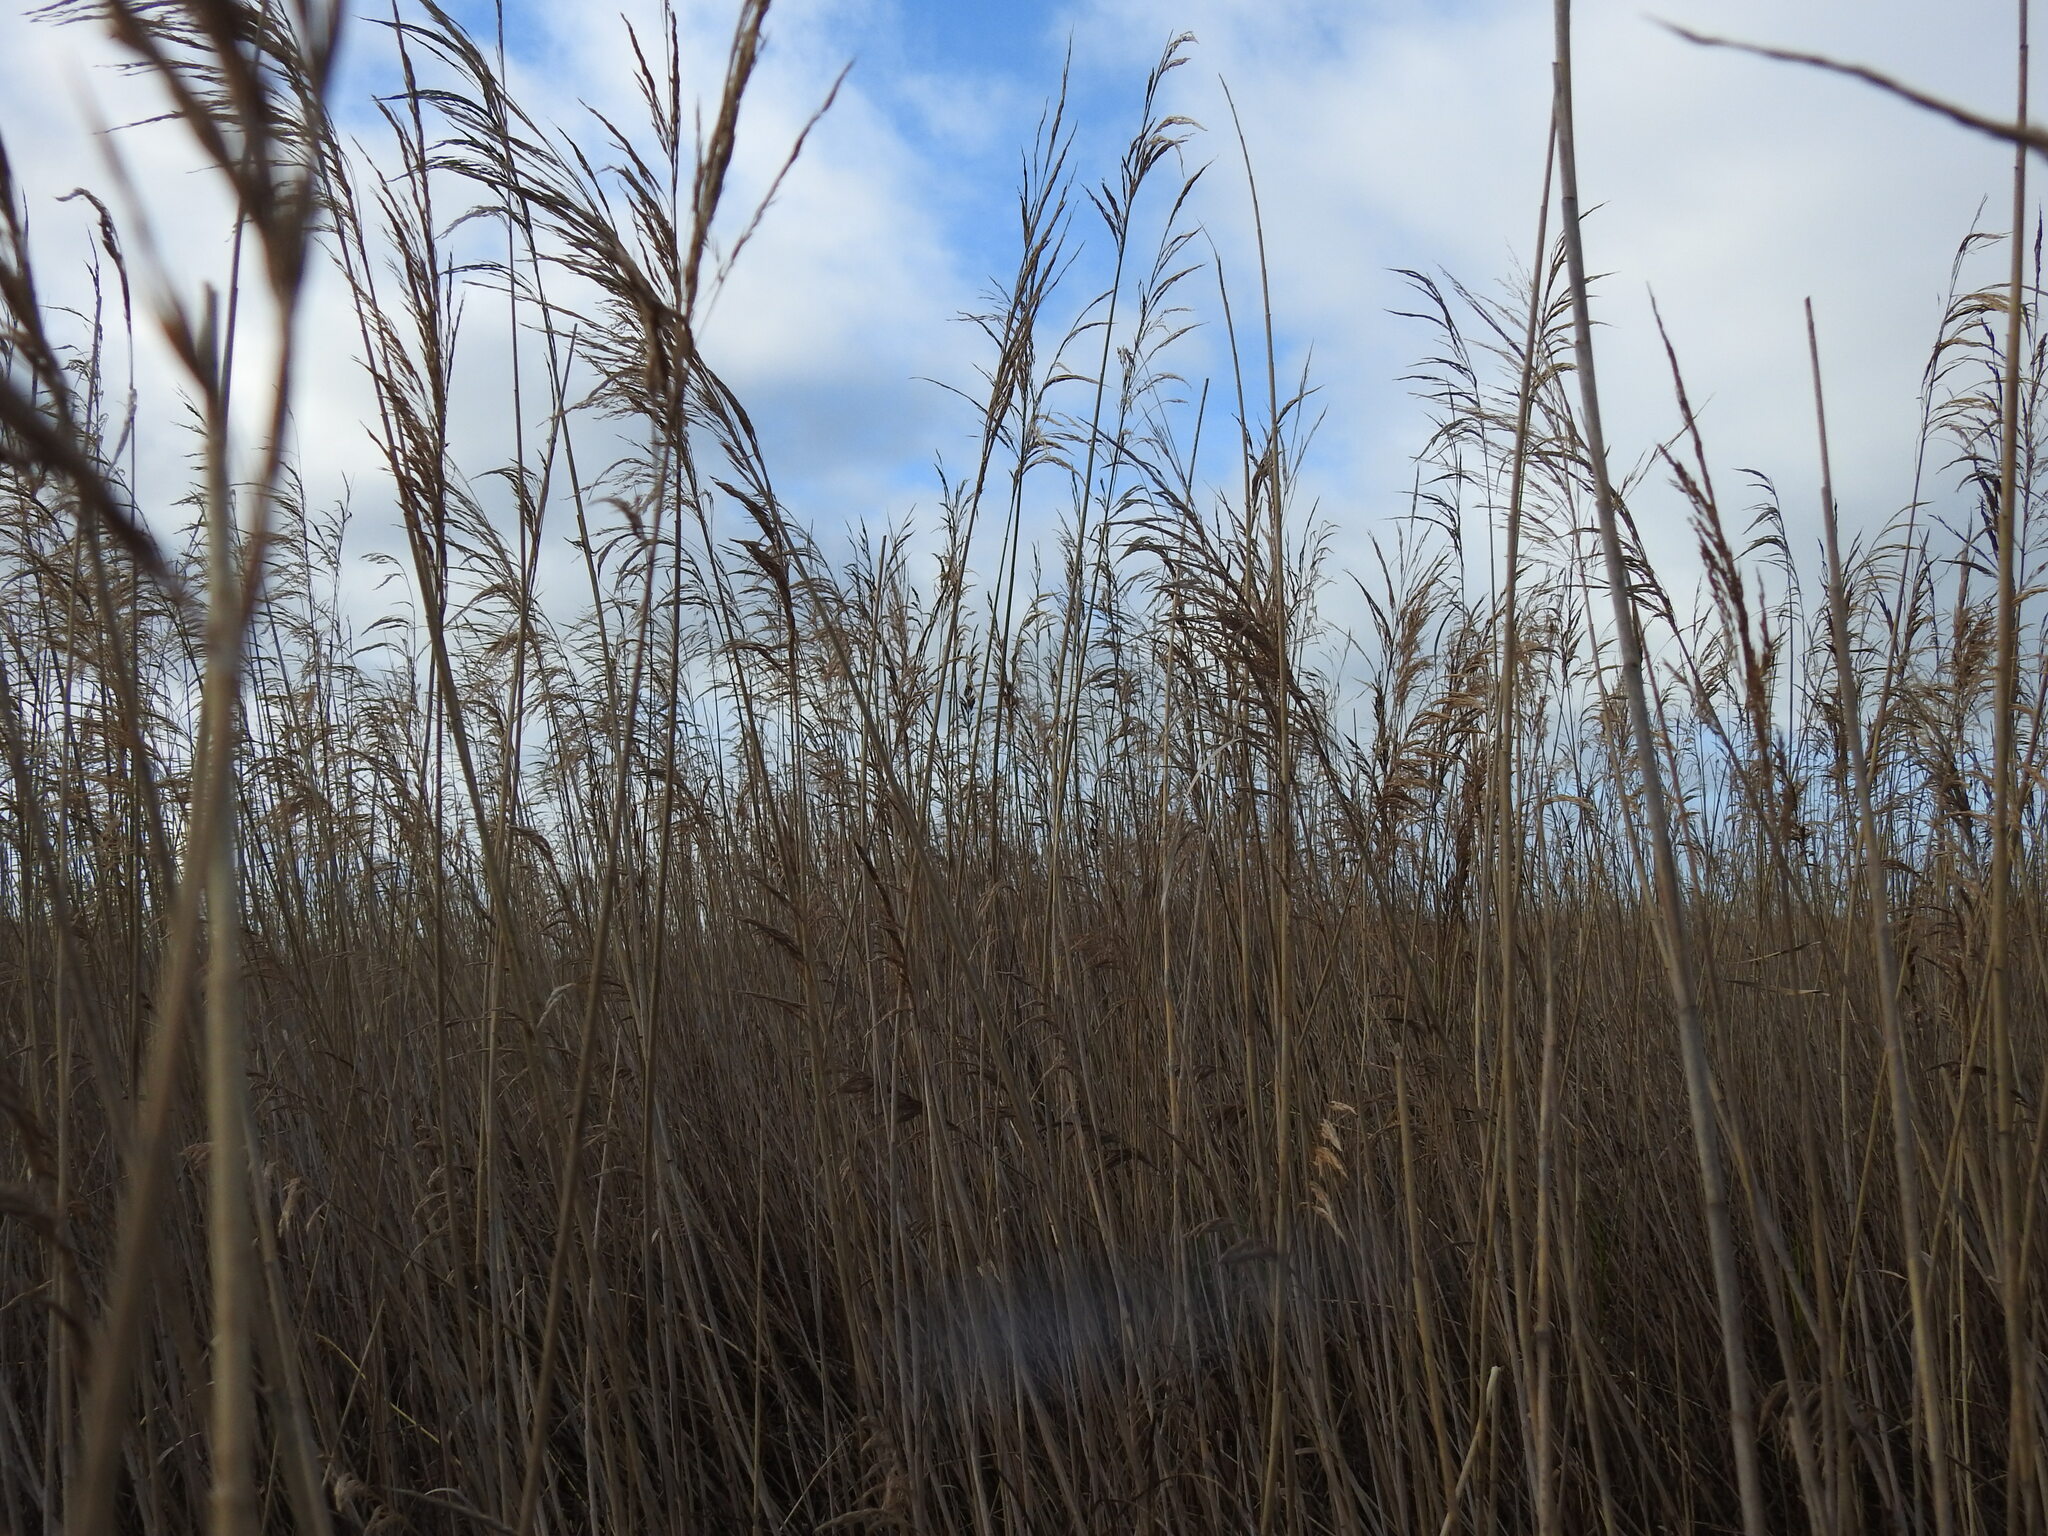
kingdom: Plantae
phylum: Tracheophyta
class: Liliopsida
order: Poales
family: Poaceae
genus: Phragmites
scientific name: Phragmites australis
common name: Common reed
